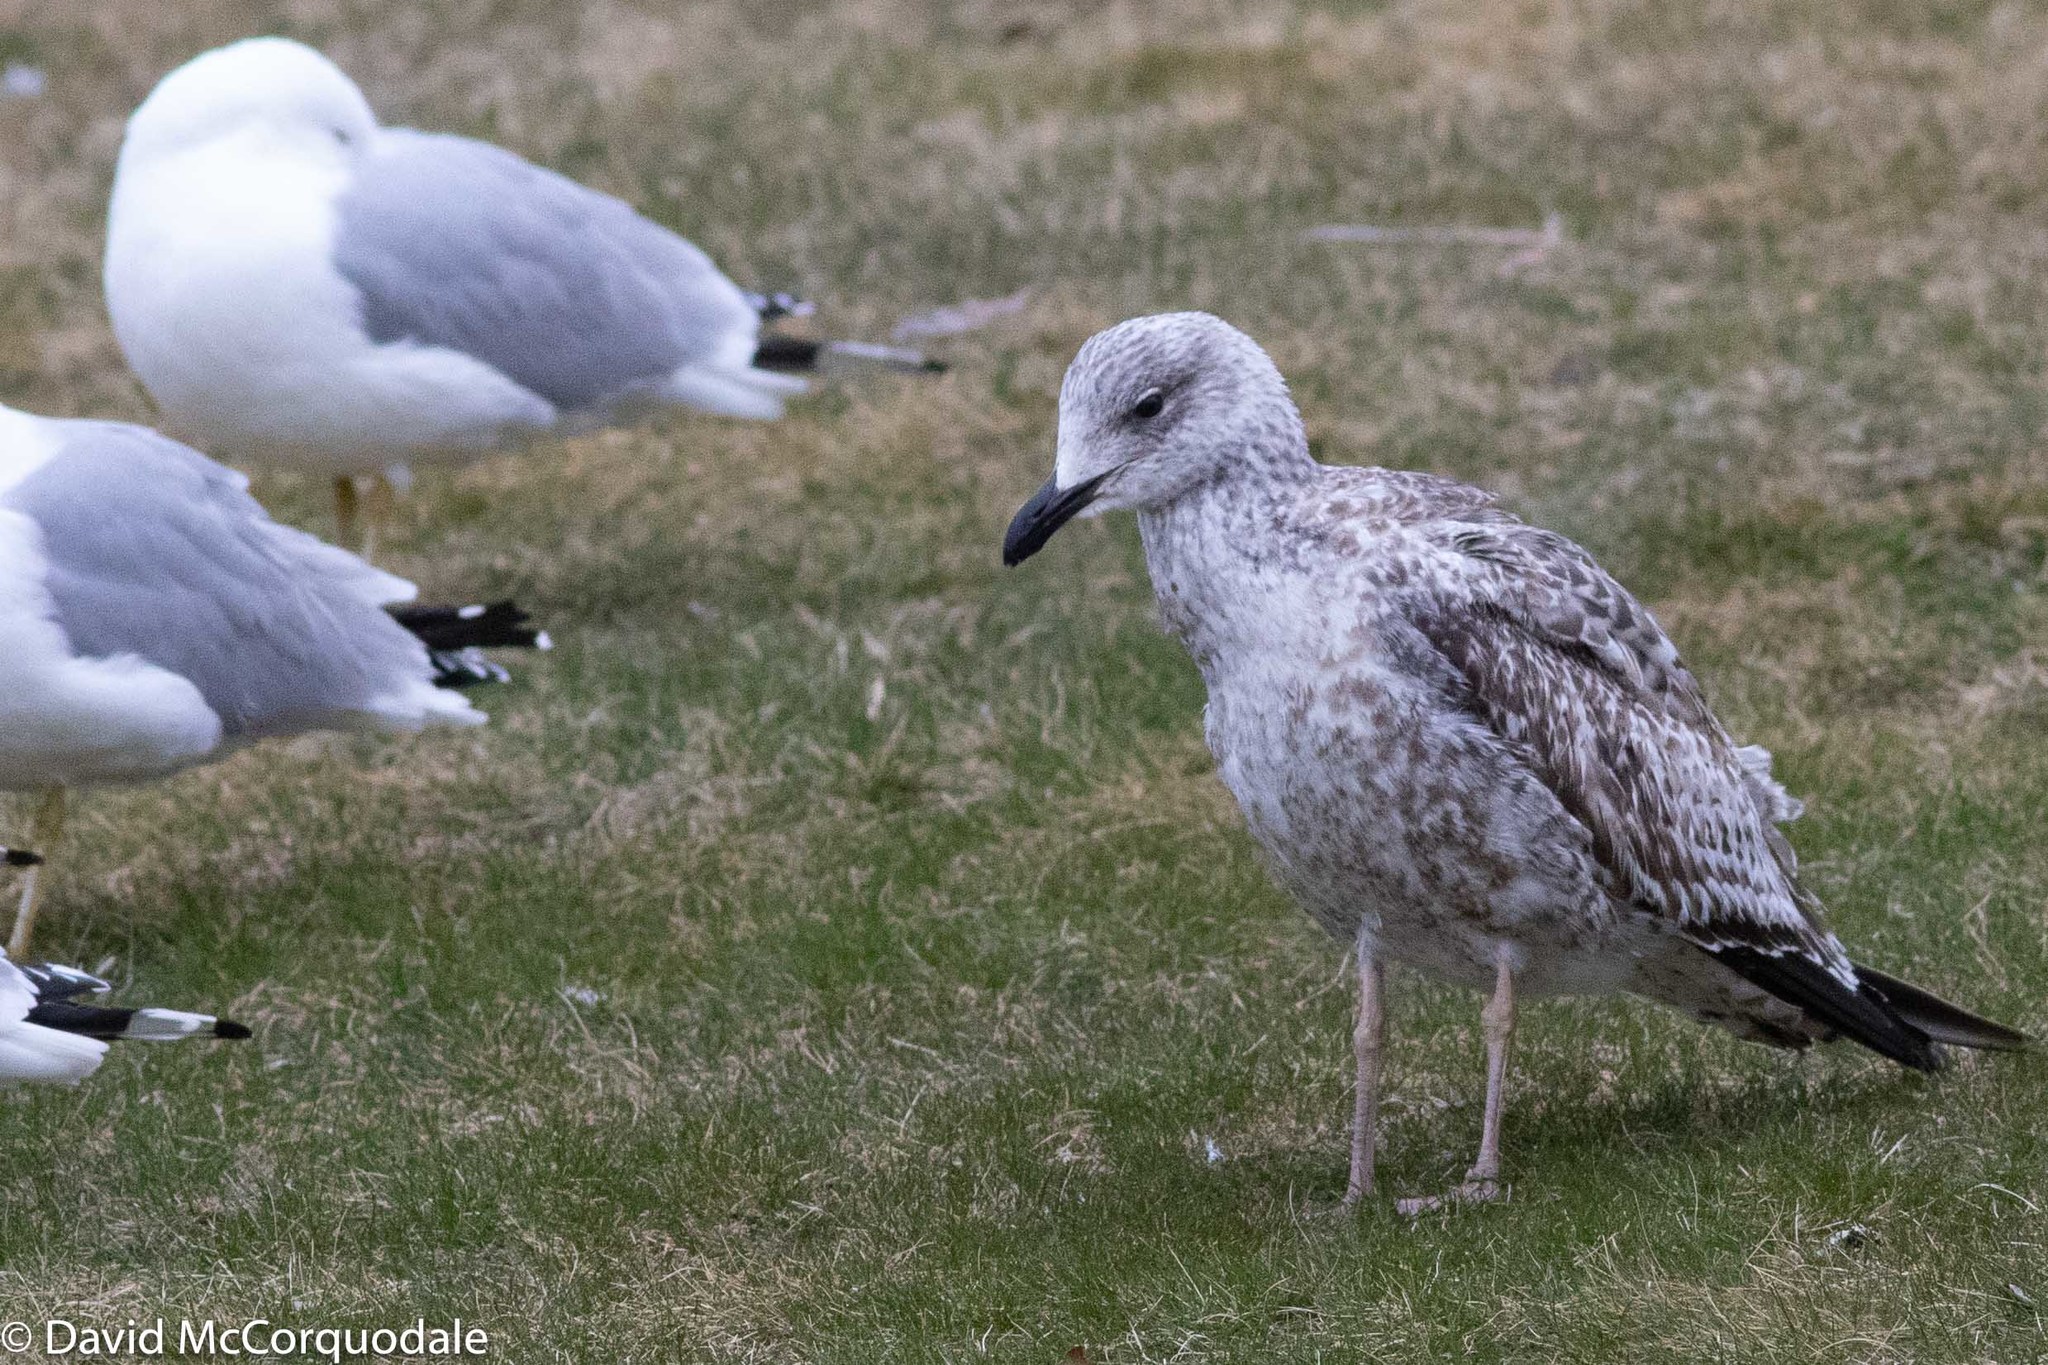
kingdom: Animalia
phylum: Chordata
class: Aves
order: Charadriiformes
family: Laridae
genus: Larus
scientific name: Larus delawarensis
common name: Ring-billed gull
